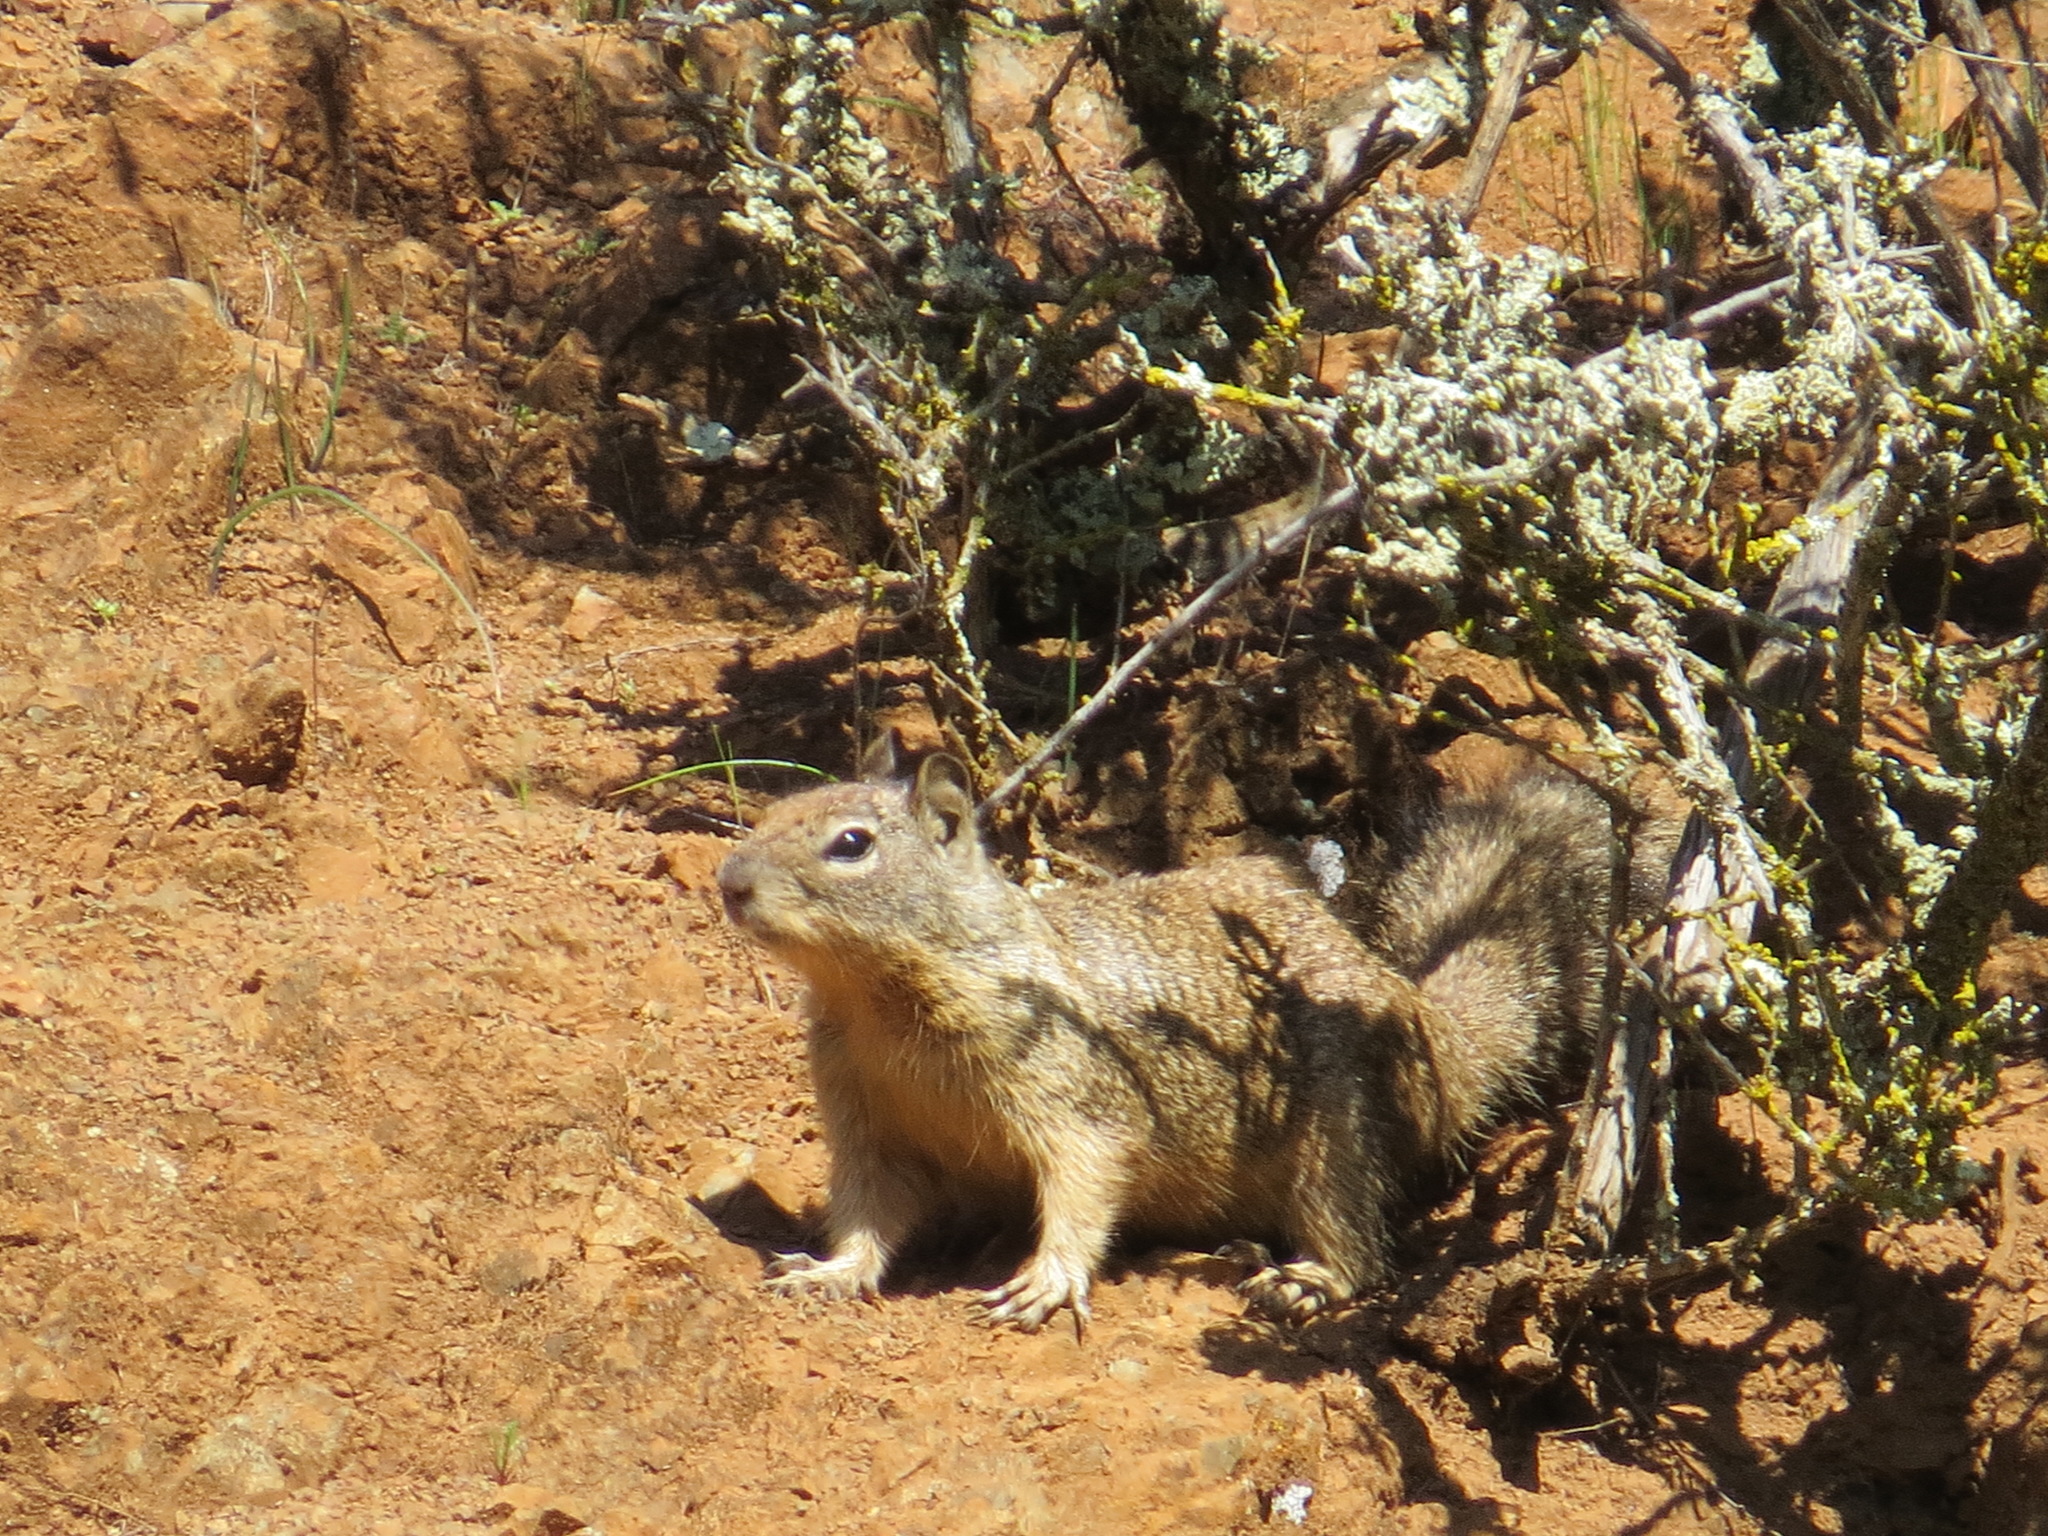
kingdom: Animalia
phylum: Chordata
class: Mammalia
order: Rodentia
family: Sciuridae
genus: Otospermophilus
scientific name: Otospermophilus beecheyi
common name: California ground squirrel
